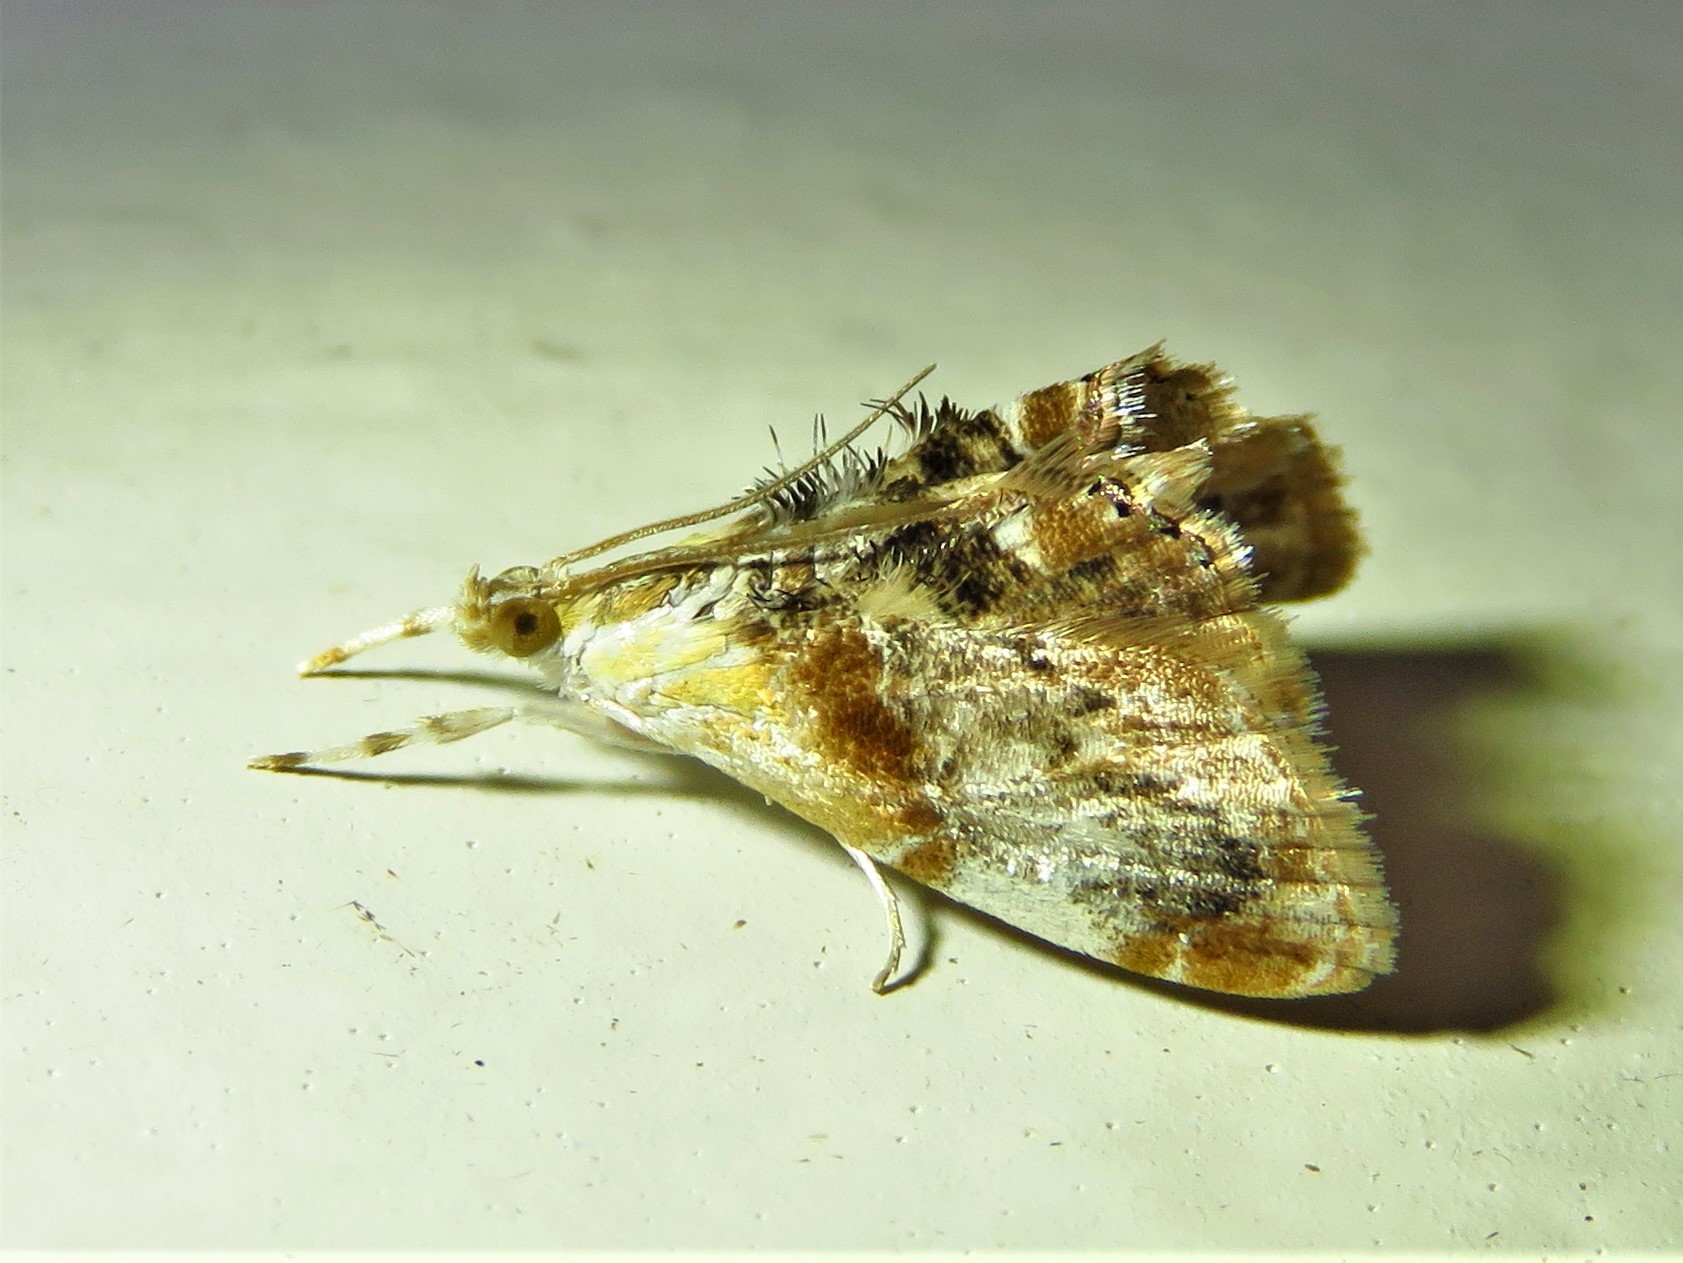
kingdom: Animalia
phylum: Arthropoda
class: Insecta
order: Lepidoptera
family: Crambidae
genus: Dicymolomia
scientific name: Dicymolomia julianalis
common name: Julia's dicymolomia moth
